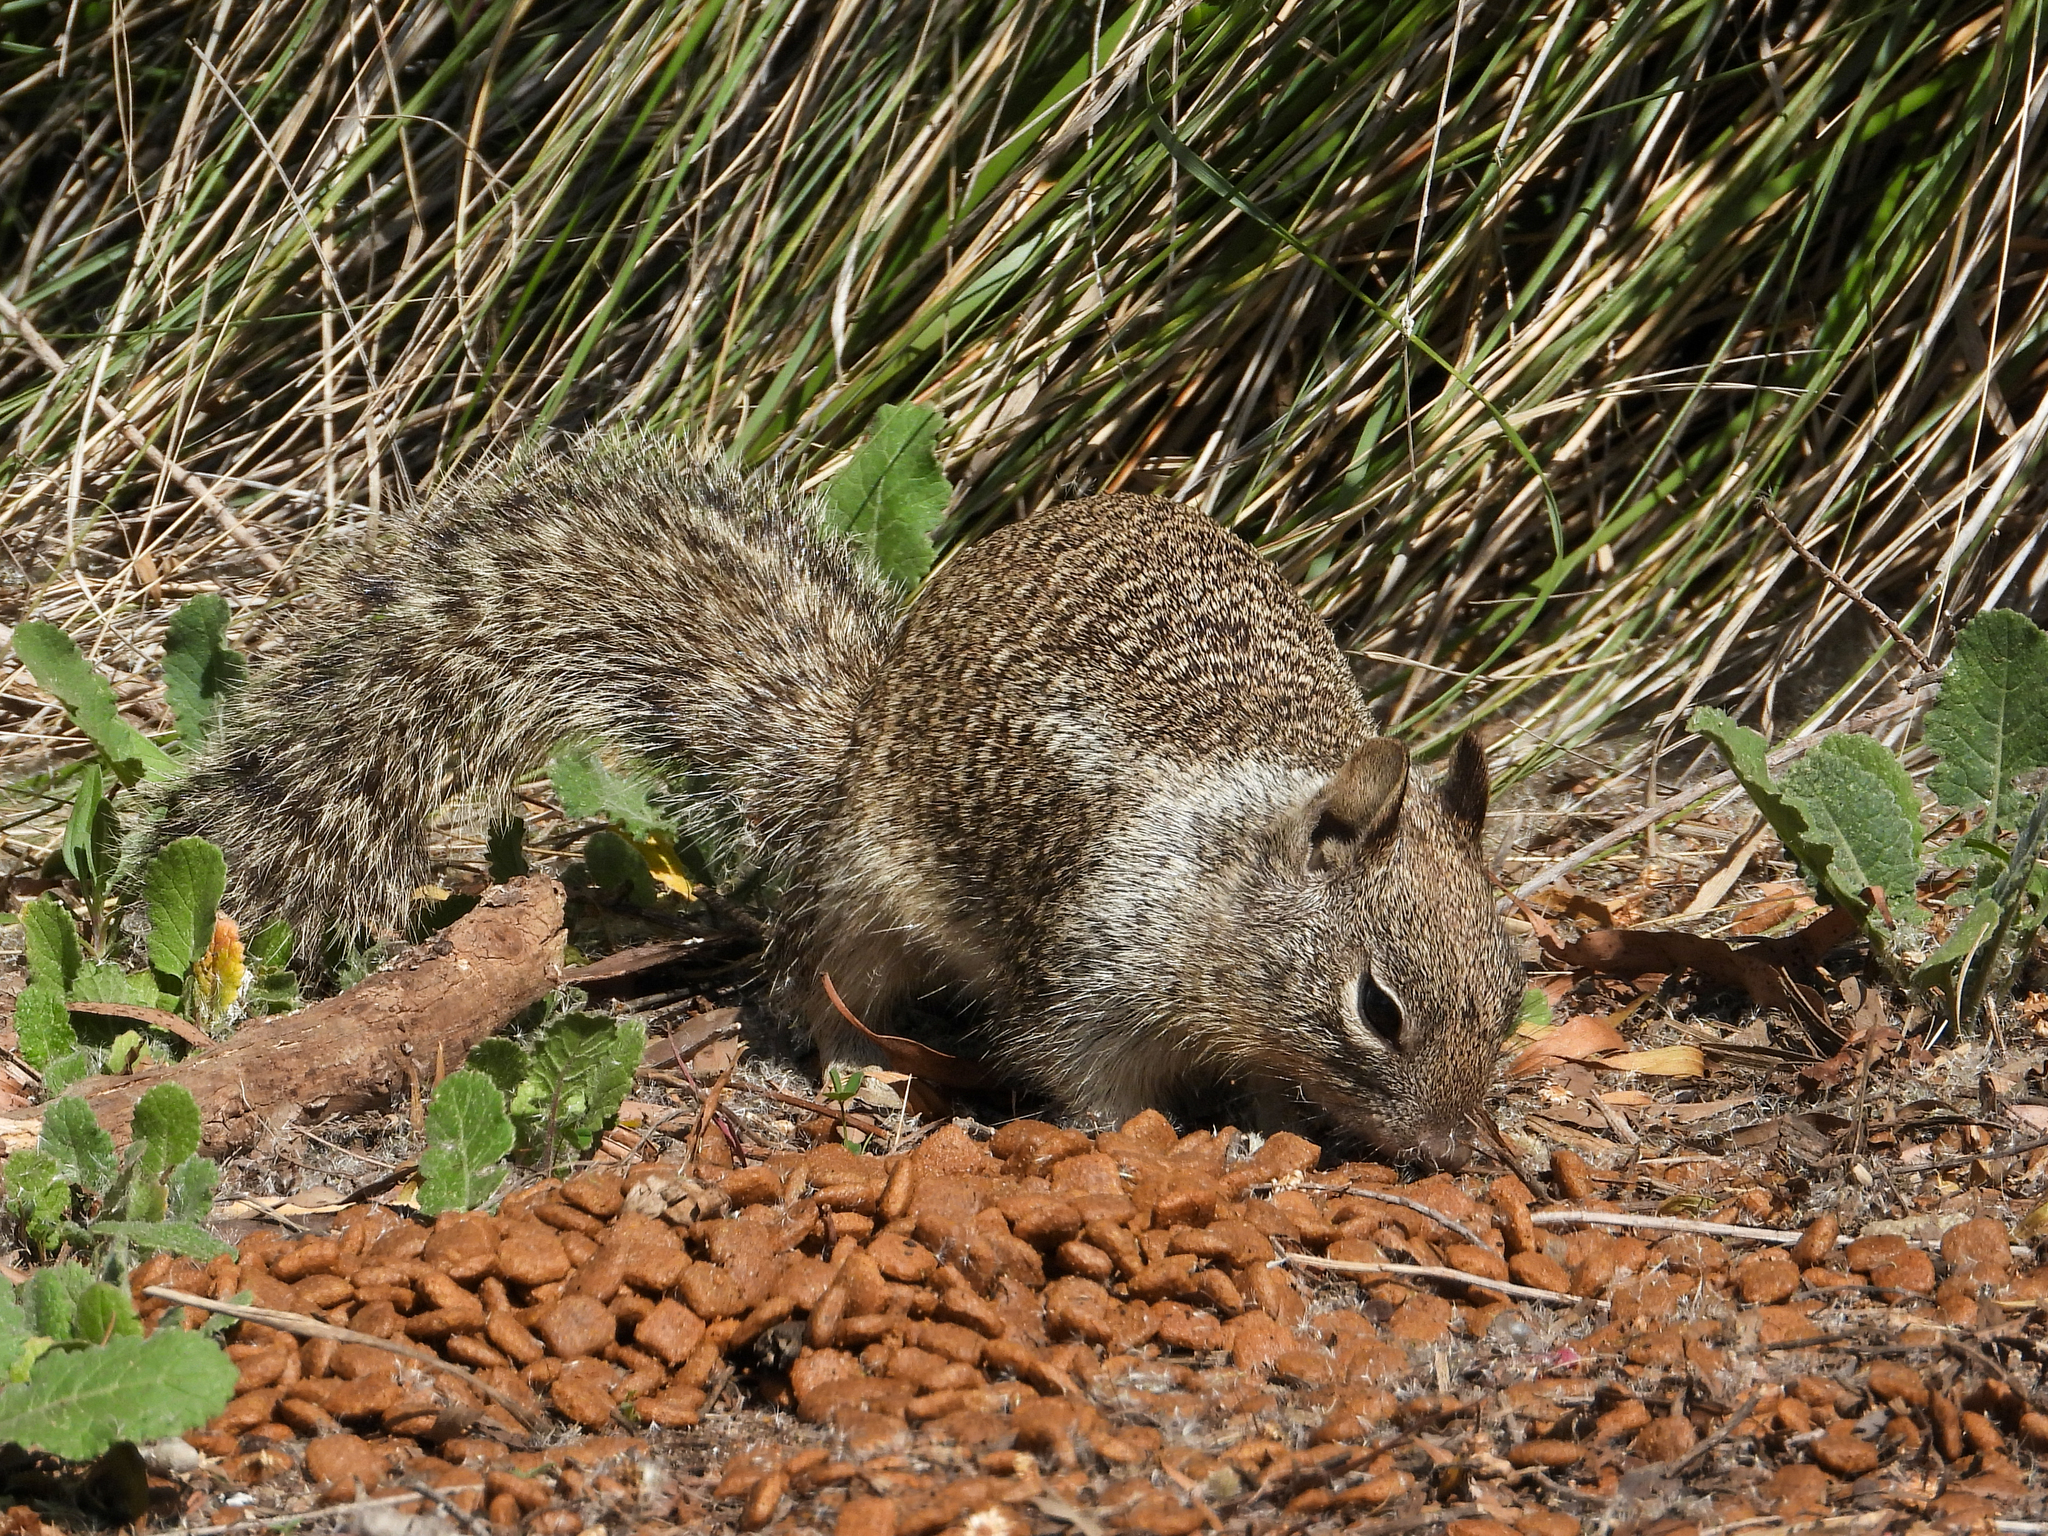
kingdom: Animalia
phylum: Chordata
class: Mammalia
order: Rodentia
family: Sciuridae
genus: Otospermophilus
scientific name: Otospermophilus beecheyi
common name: California ground squirrel
